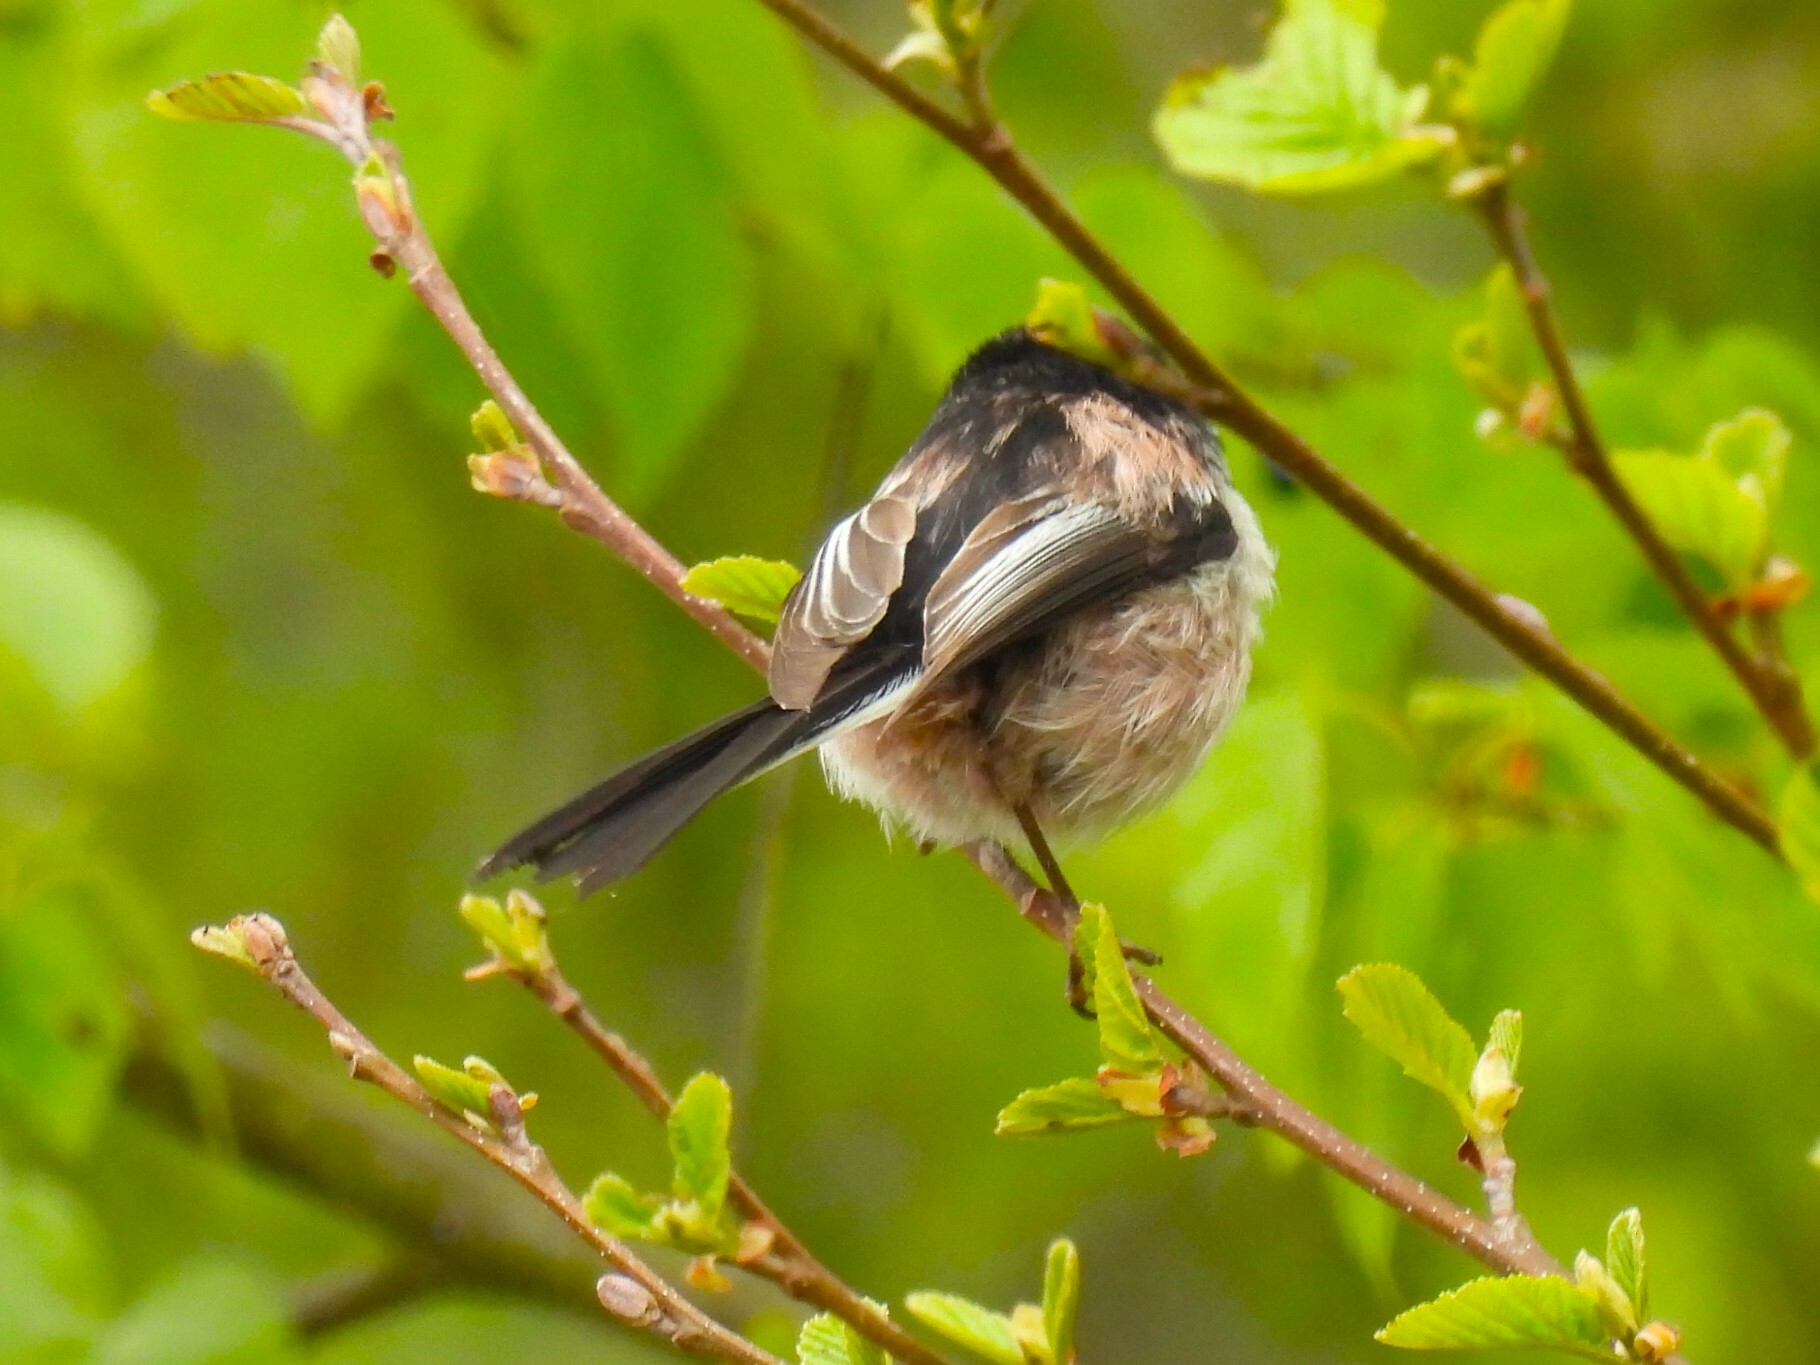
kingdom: Animalia
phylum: Chordata
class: Aves
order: Passeriformes
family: Aegithalidae
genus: Aegithalos
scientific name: Aegithalos caudatus
